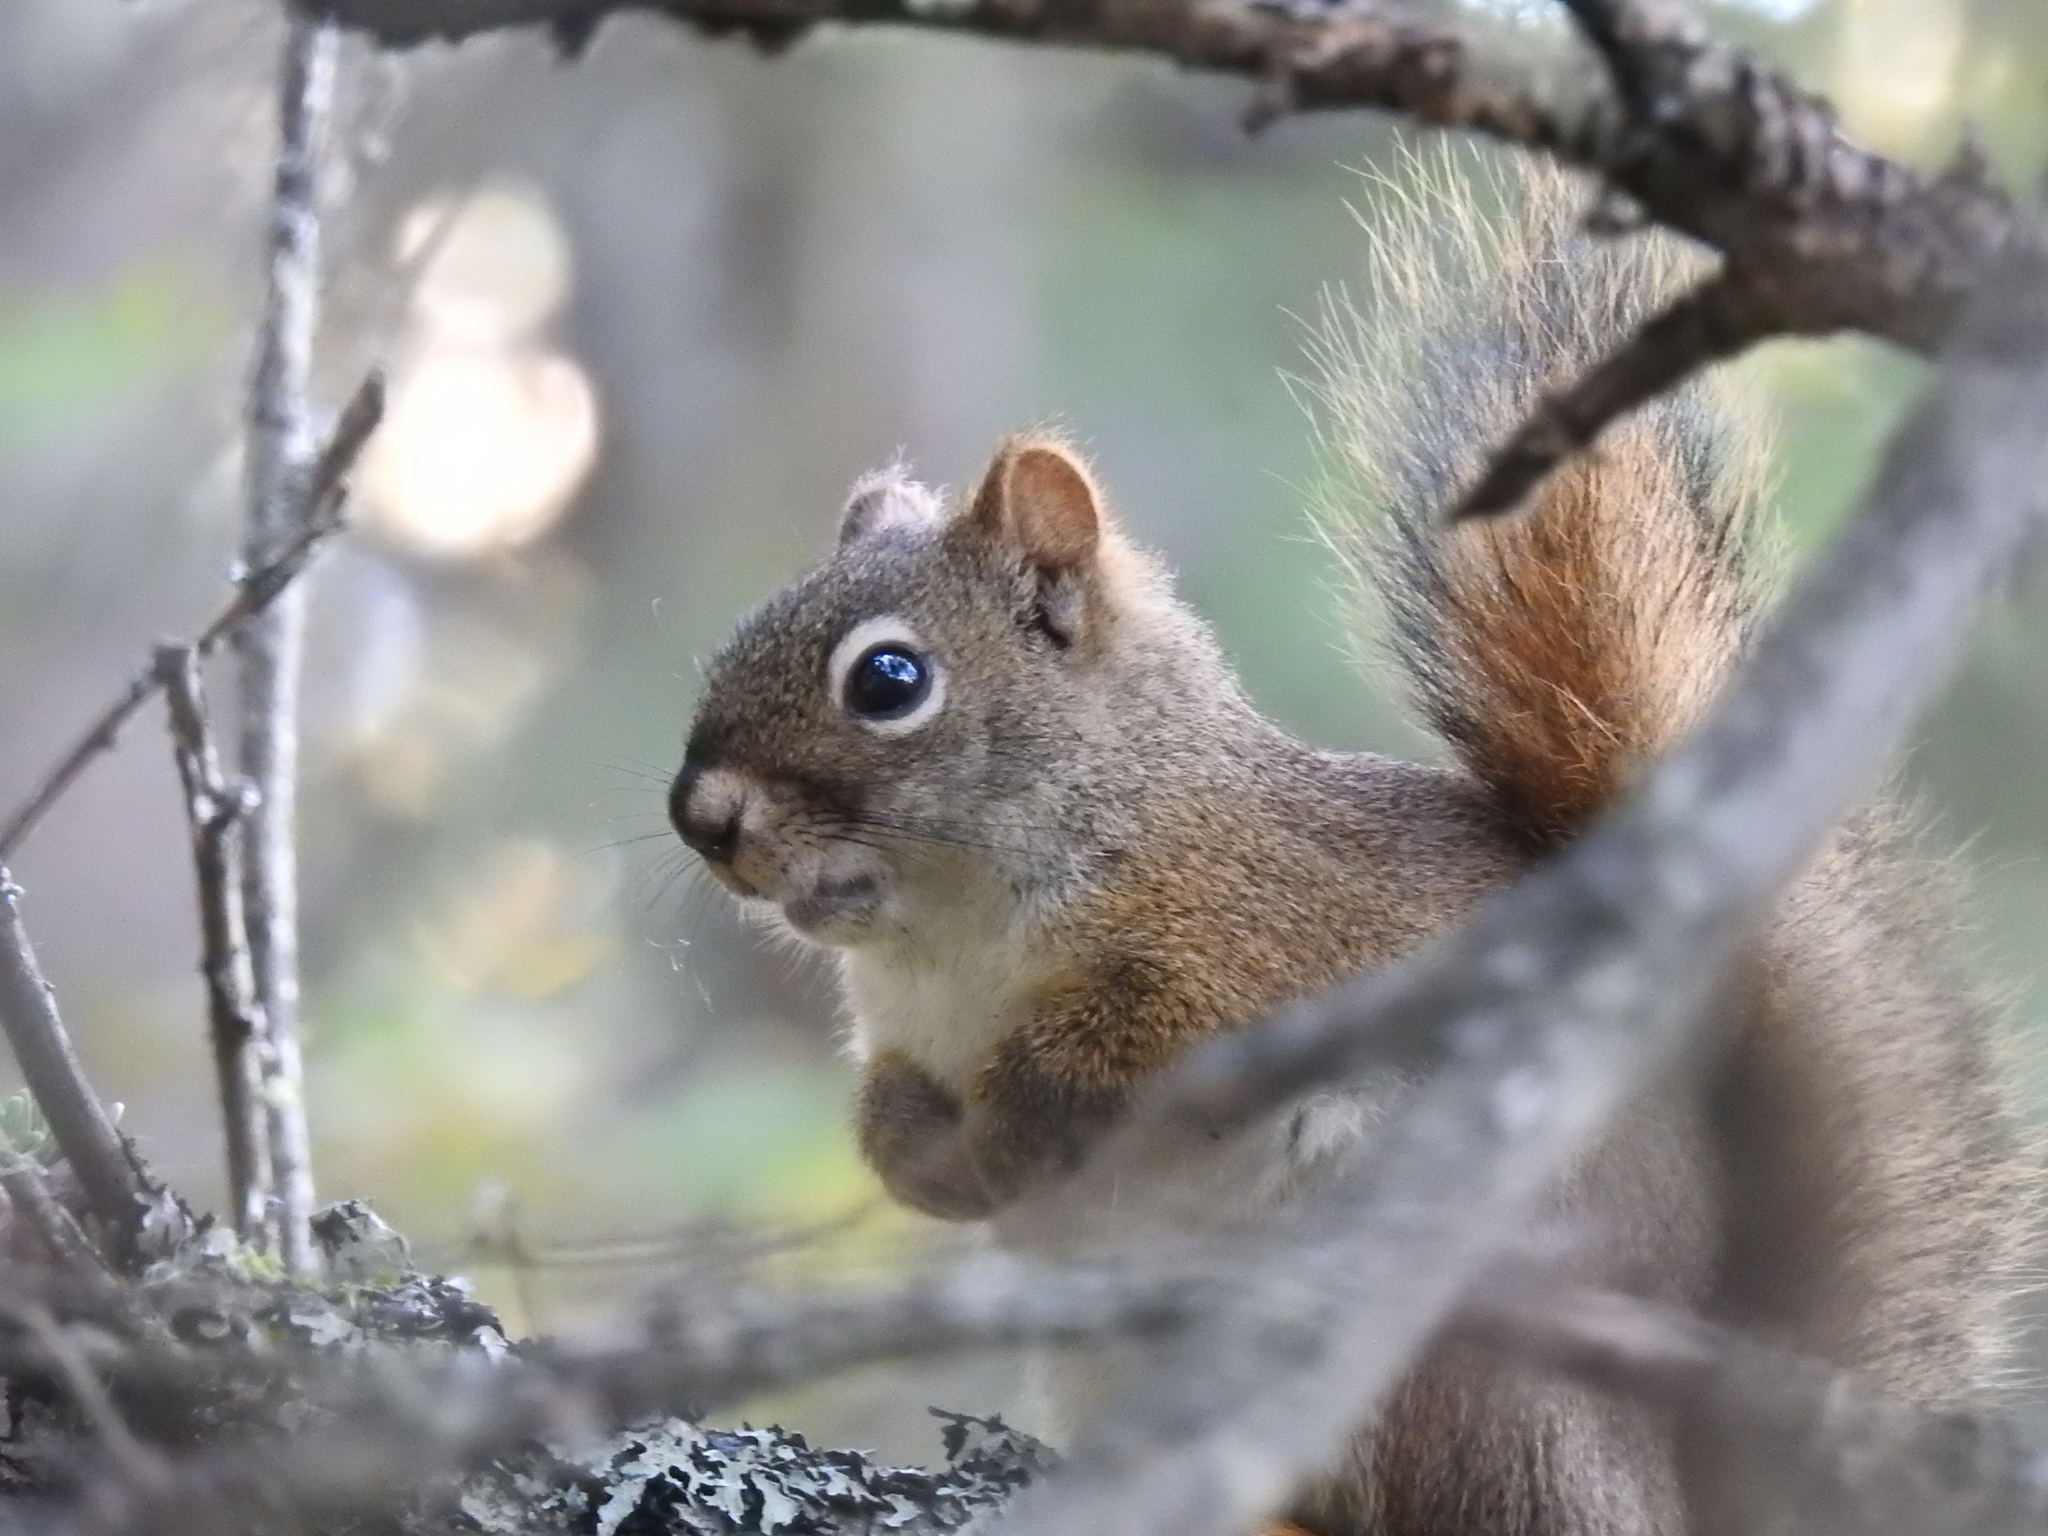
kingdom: Animalia
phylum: Chordata
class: Mammalia
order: Rodentia
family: Sciuridae
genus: Tamiasciurus
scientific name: Tamiasciurus hudsonicus
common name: Red squirrel
